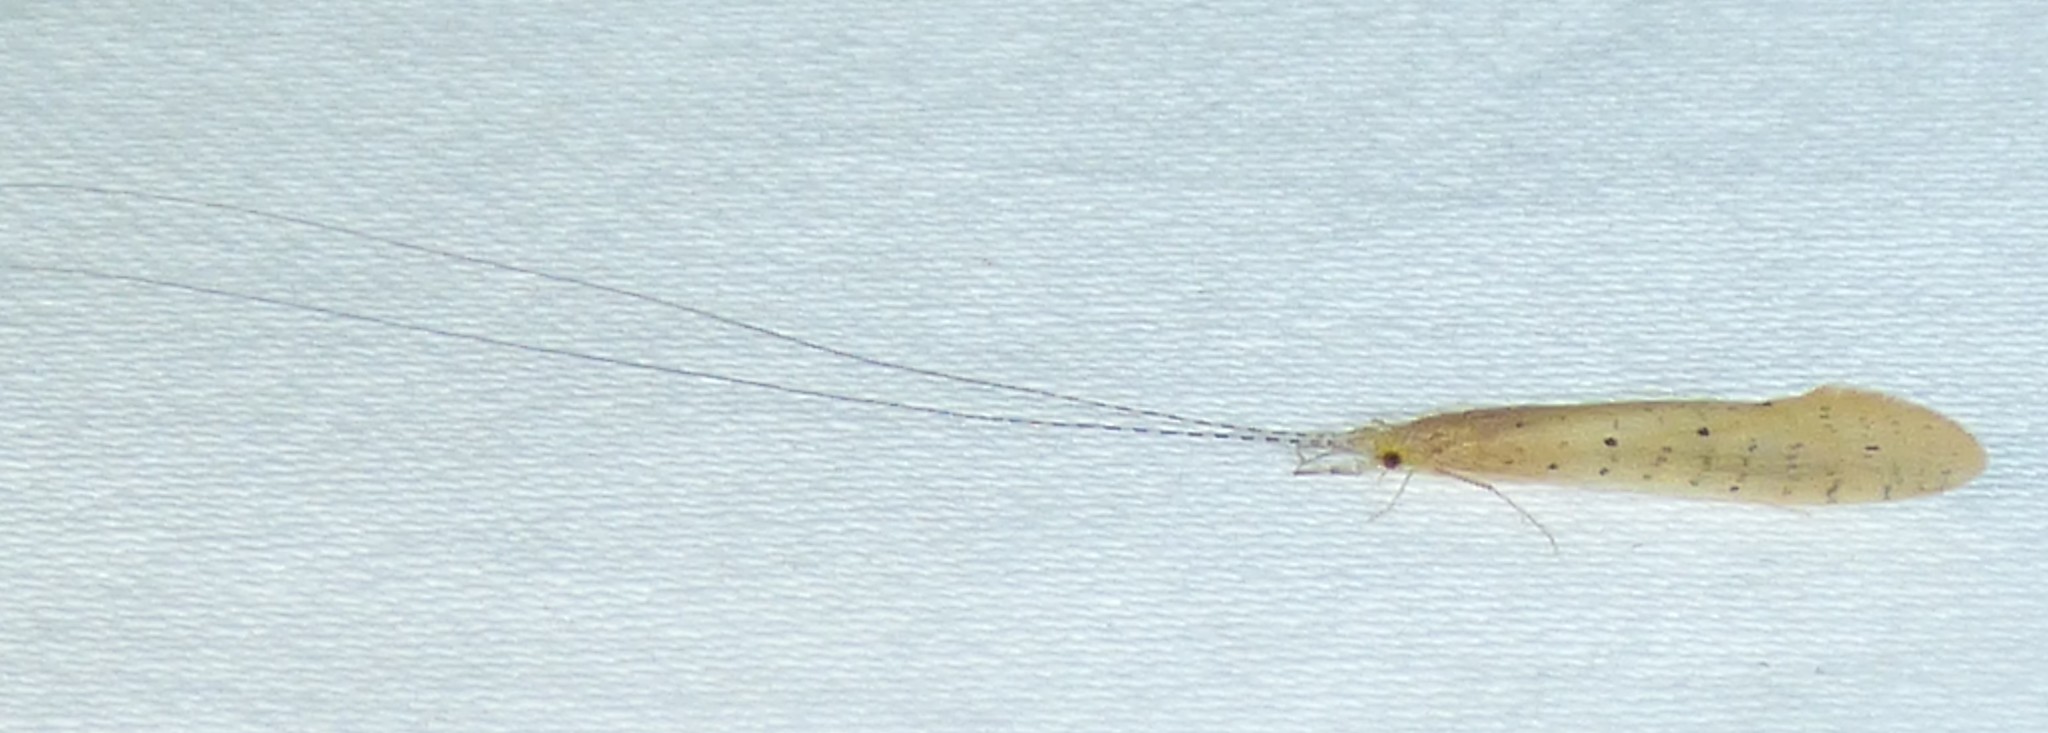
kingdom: Animalia
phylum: Arthropoda
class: Insecta
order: Trichoptera
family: Leptoceridae
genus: Nectopsyche
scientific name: Nectopsyche pavida
